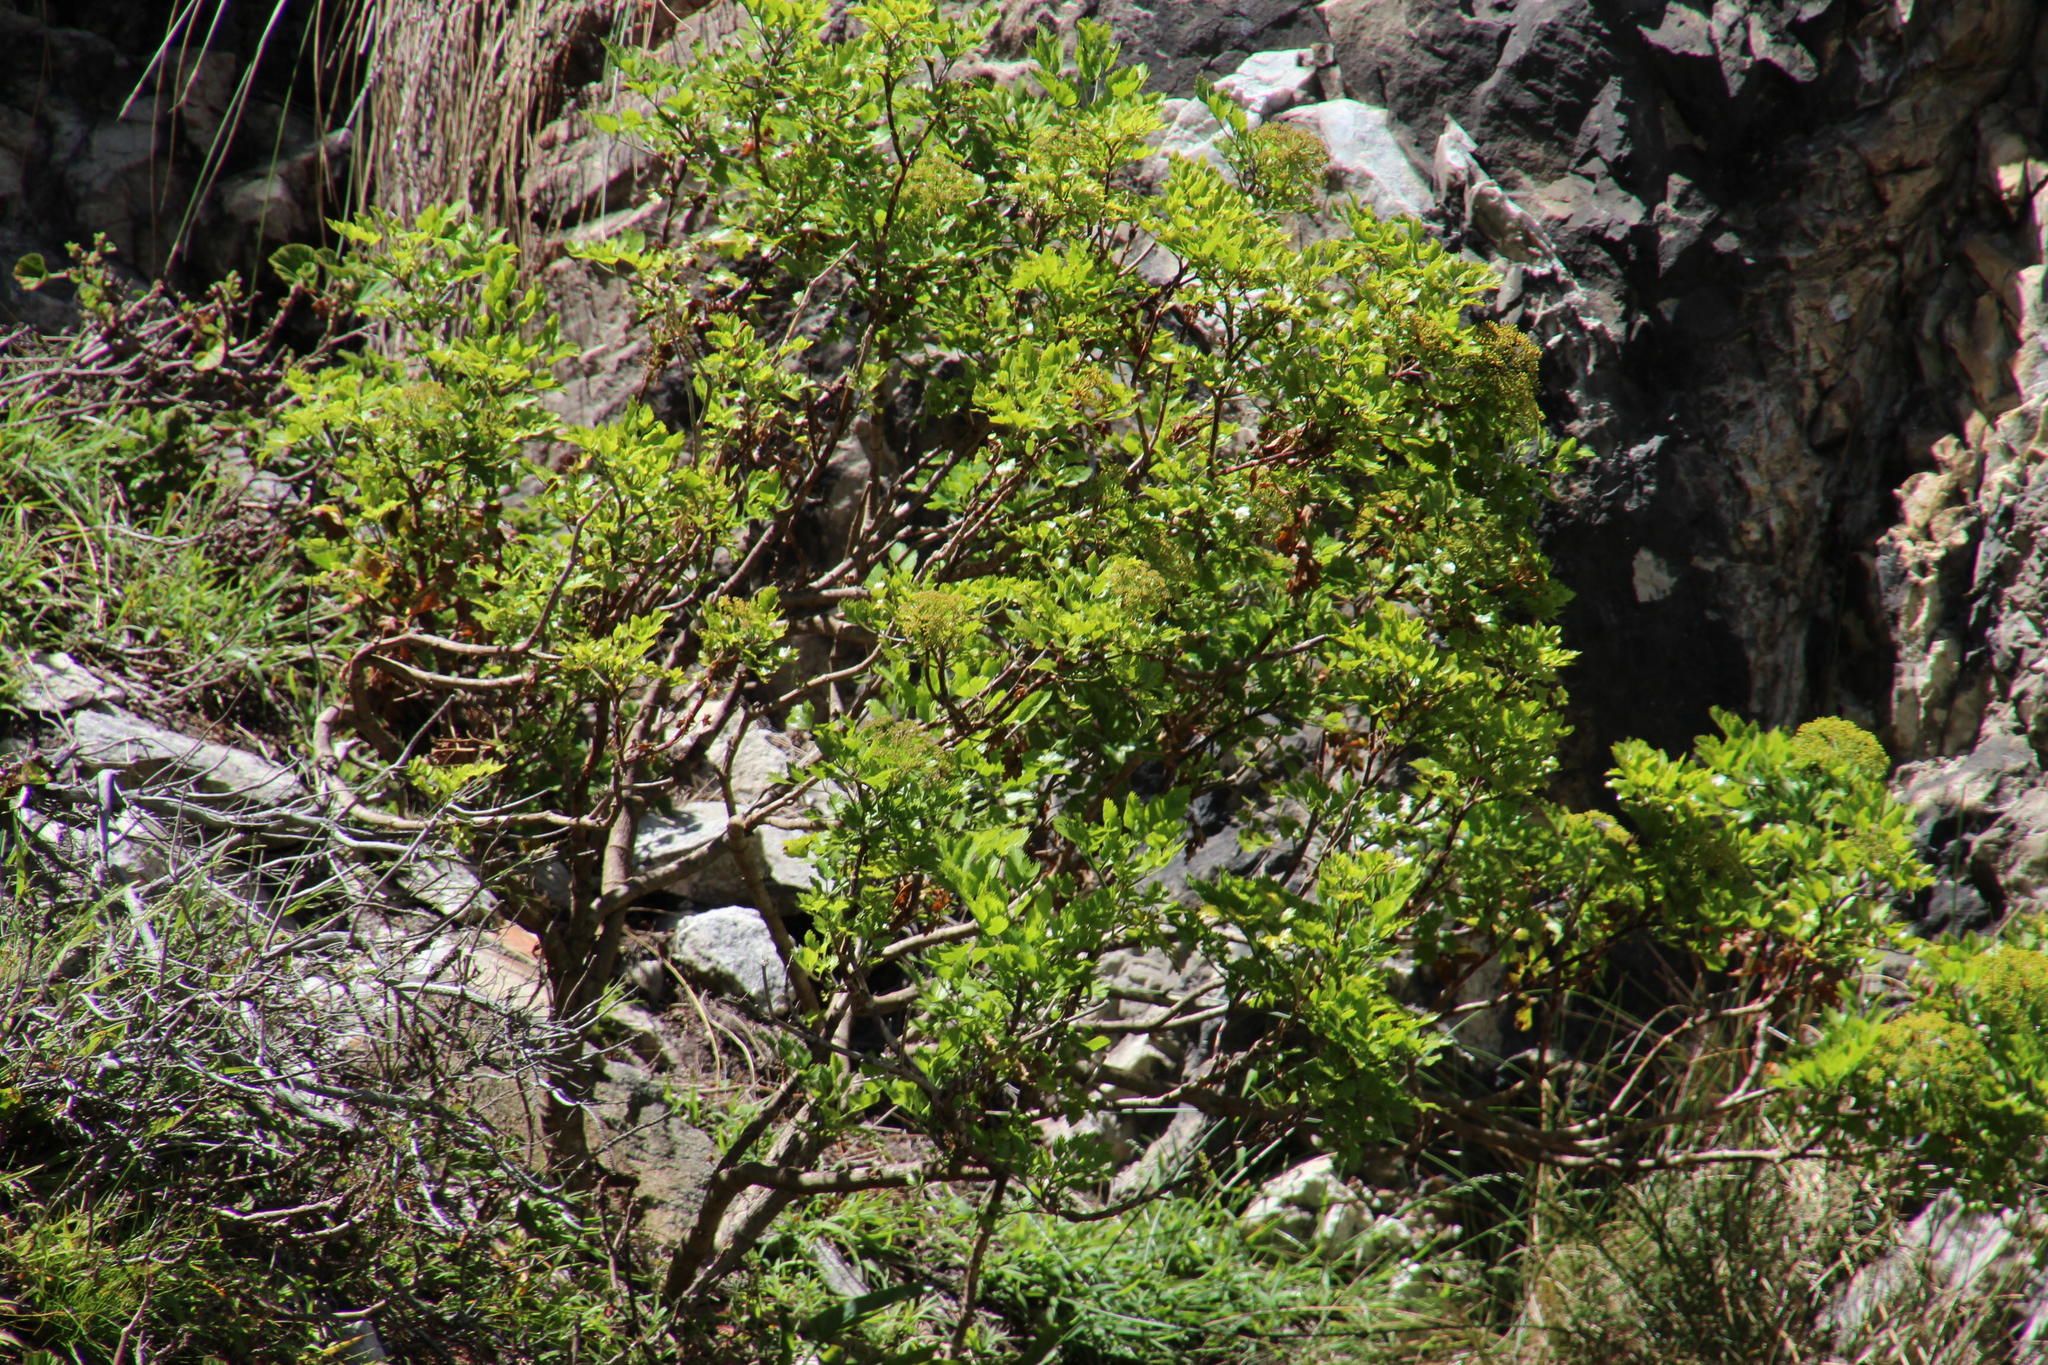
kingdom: Plantae
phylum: Tracheophyta
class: Magnoliopsida
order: Apiales
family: Apiaceae
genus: Notobubon
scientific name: Notobubon galbanum
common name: Blisterbush
